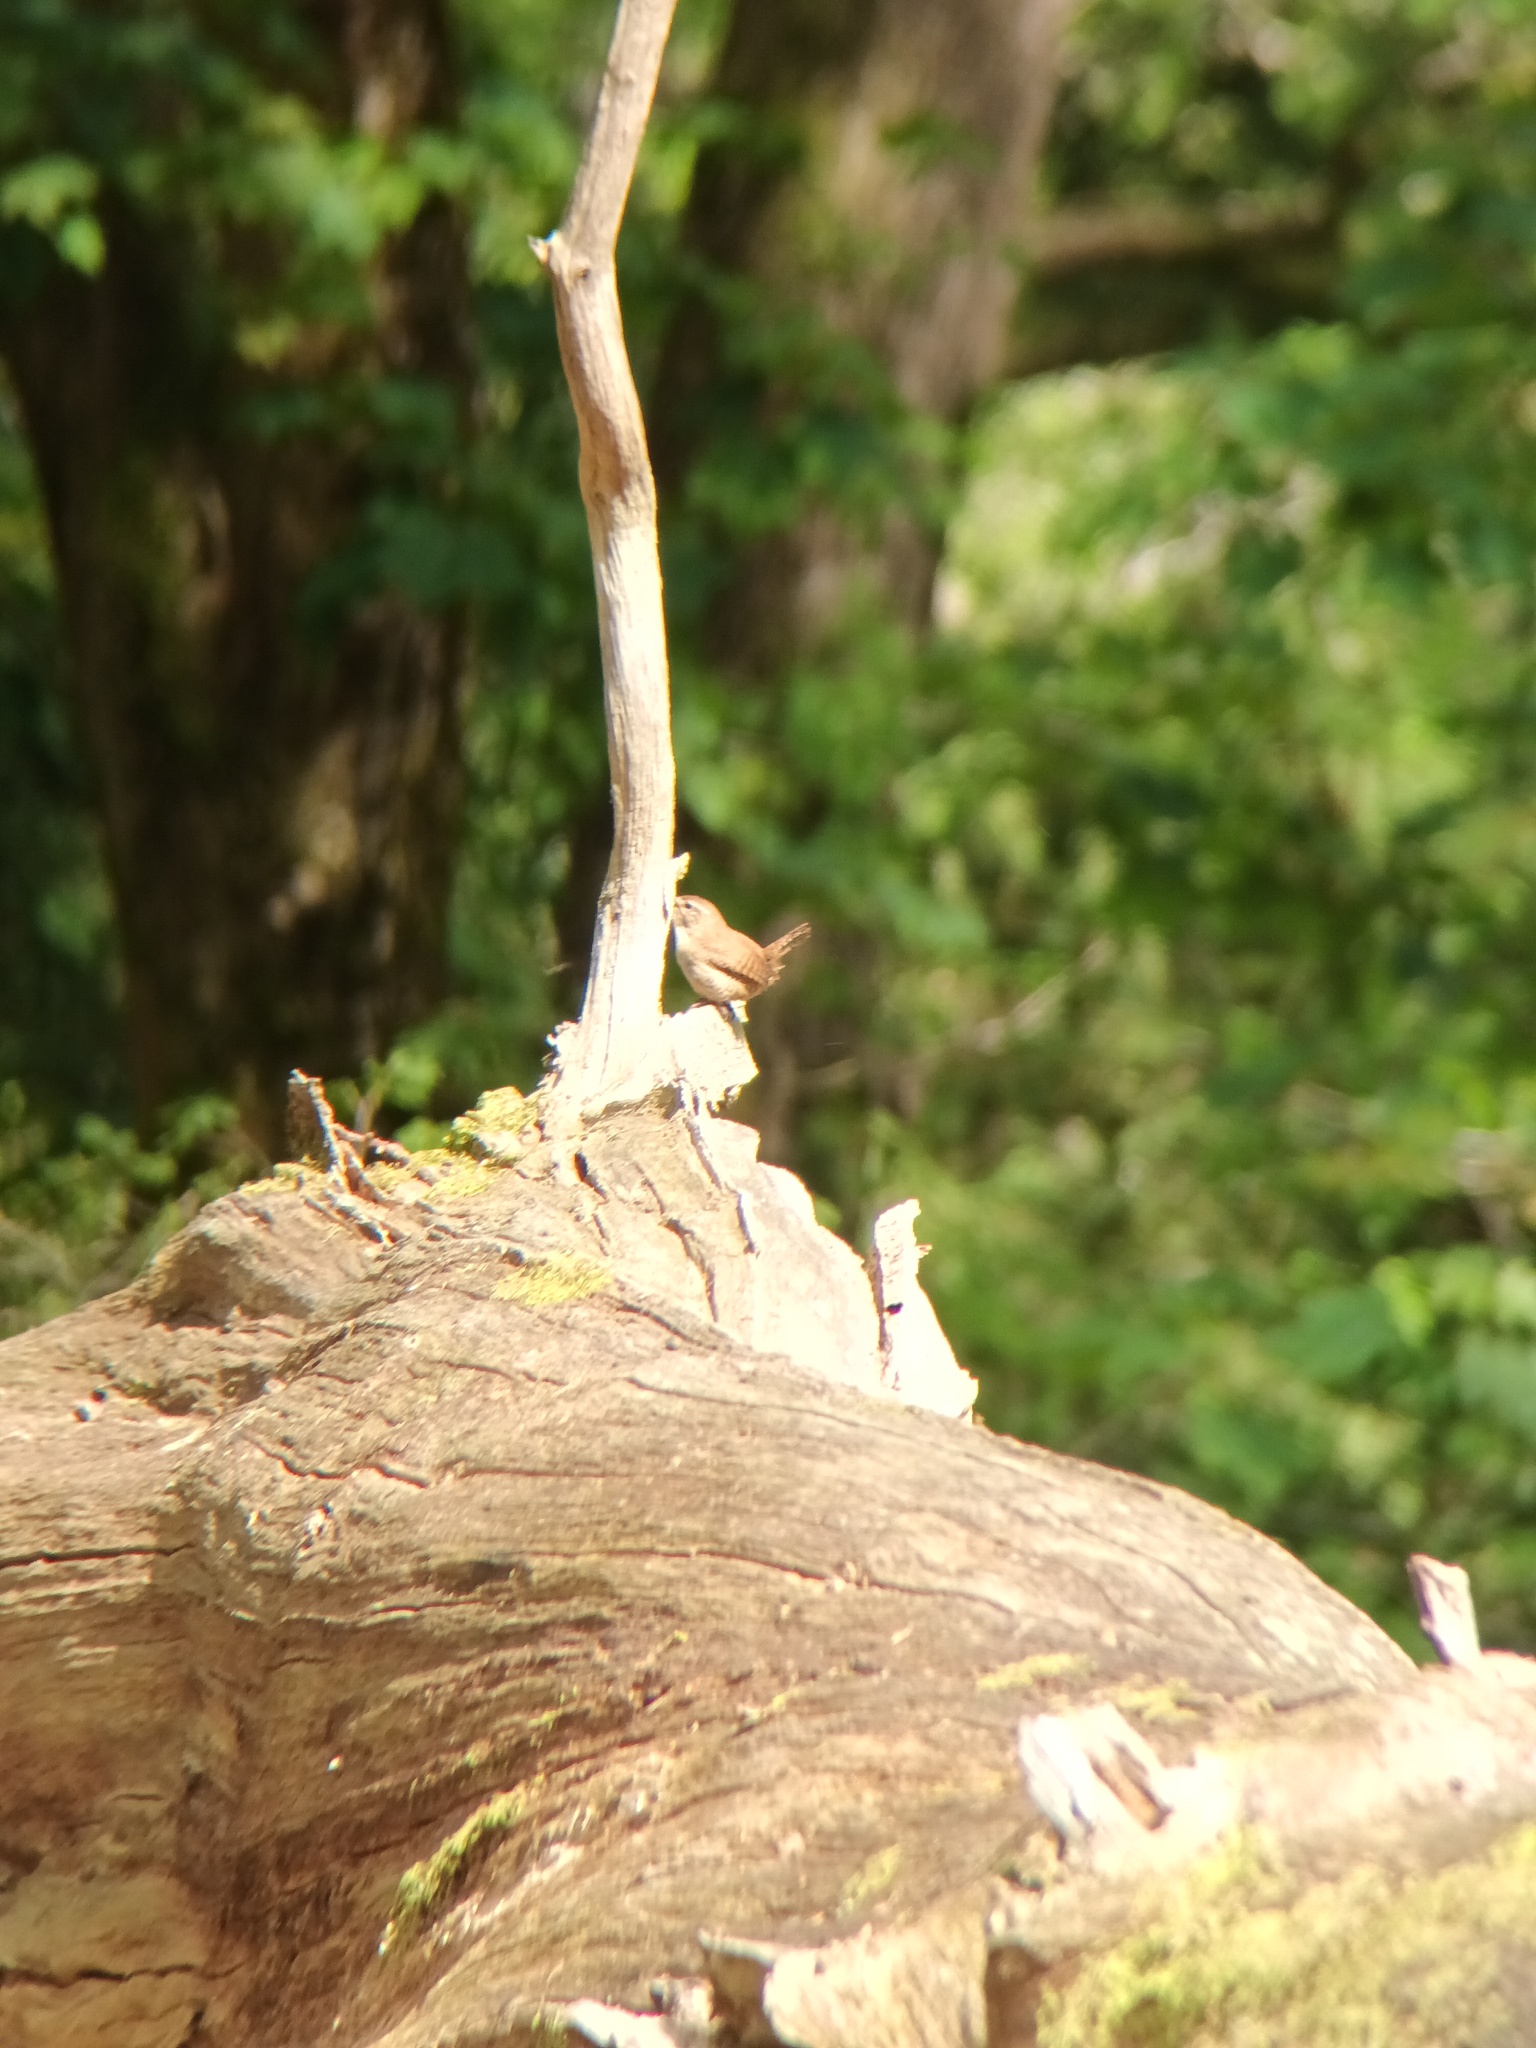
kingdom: Animalia
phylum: Chordata
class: Aves
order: Passeriformes
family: Troglodytidae
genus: Troglodytes
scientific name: Troglodytes troglodytes
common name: Eurasian wren
